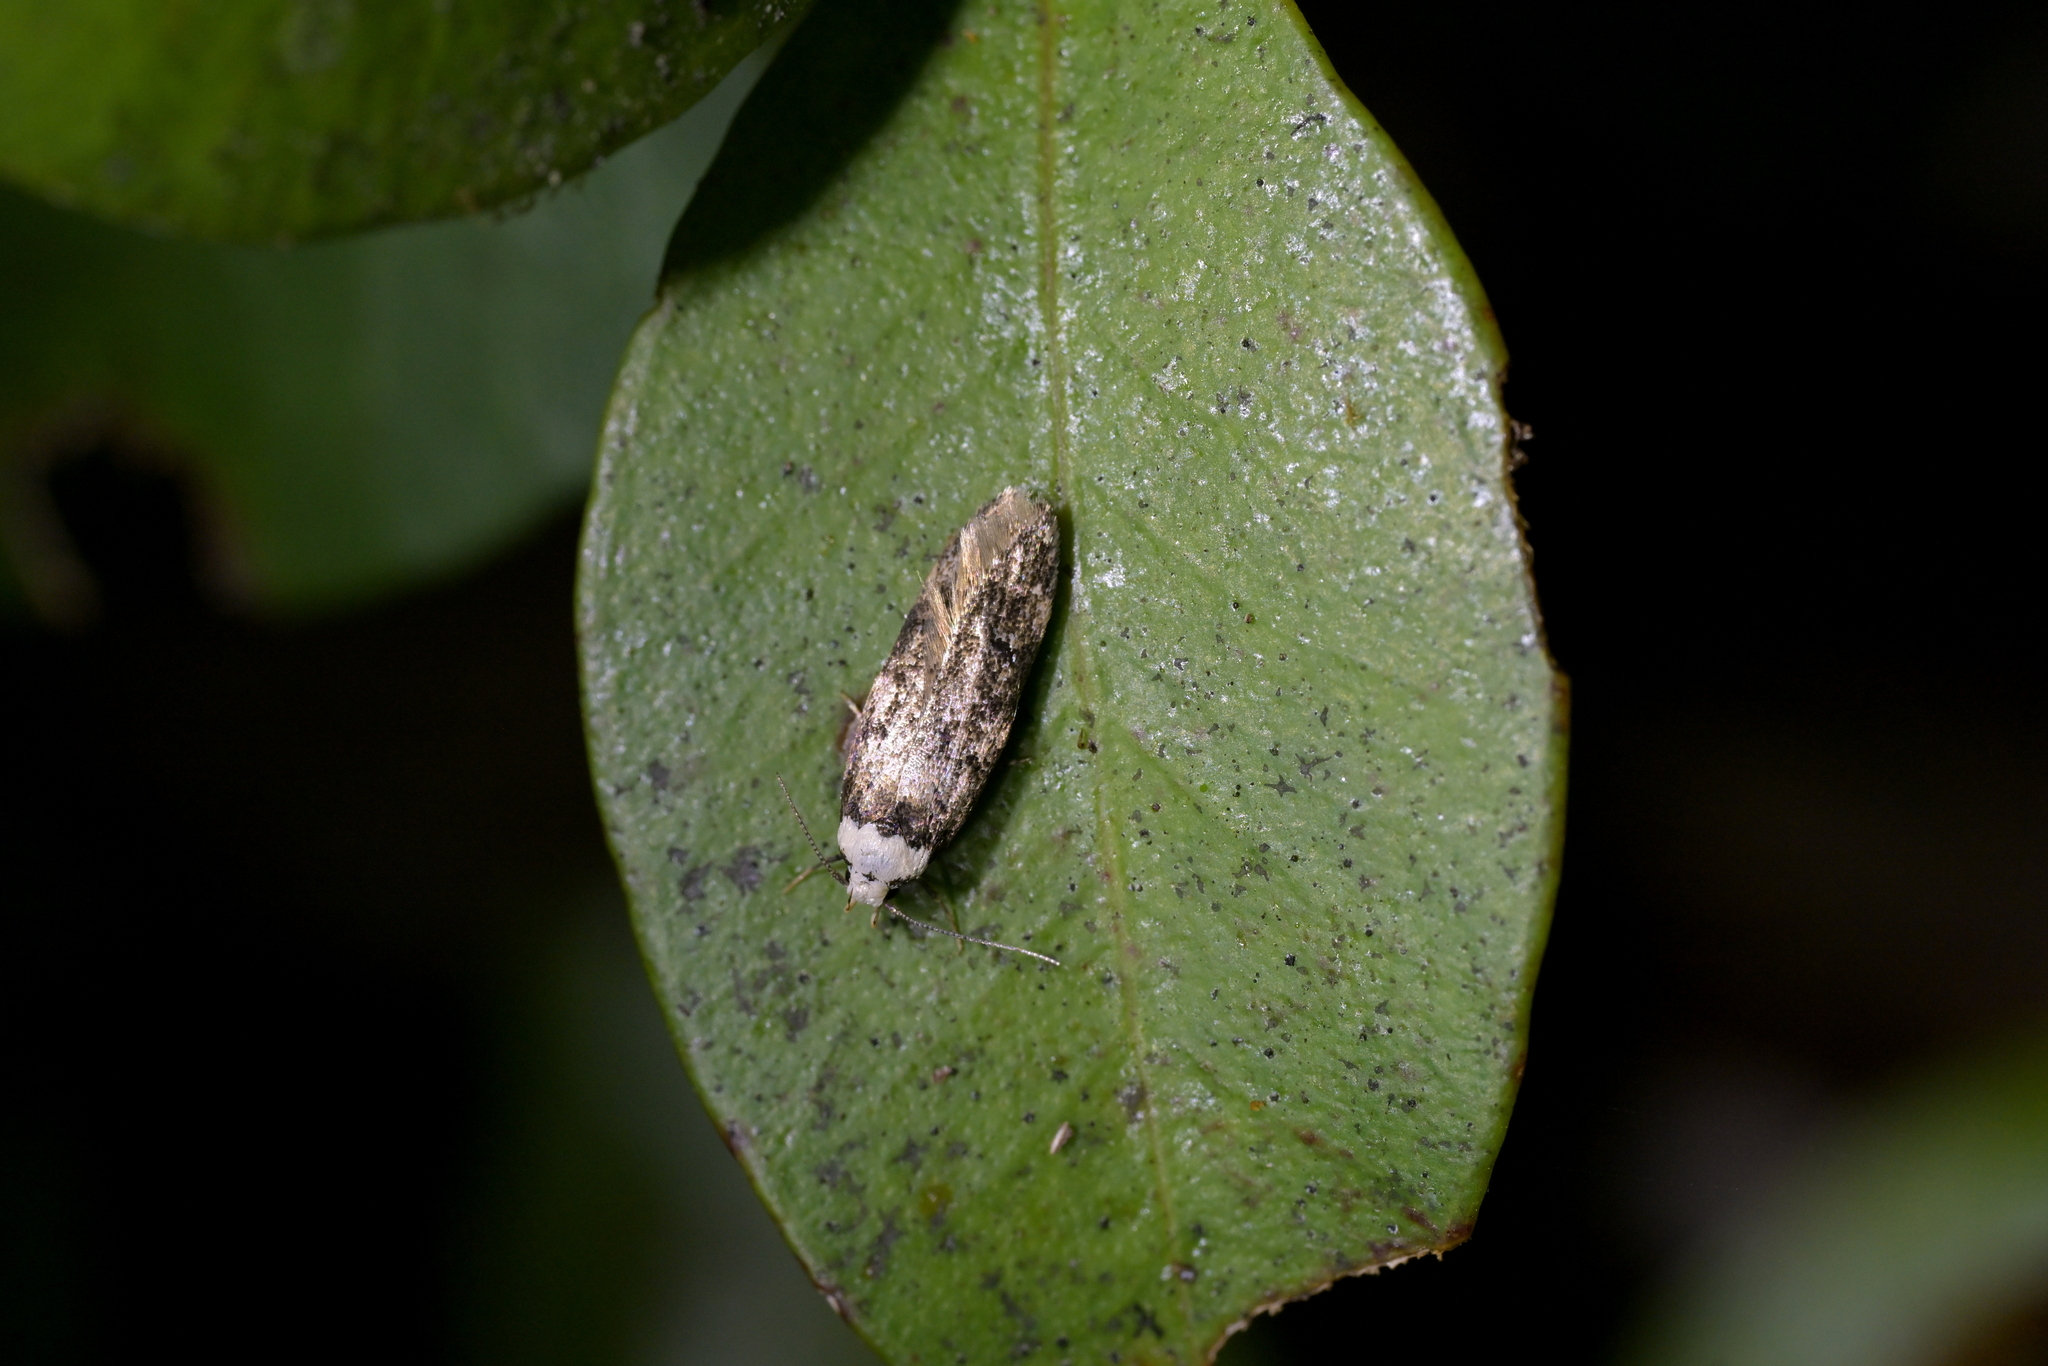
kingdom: Animalia
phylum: Arthropoda
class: Insecta
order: Lepidoptera
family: Oecophoridae
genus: Endrosis
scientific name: Endrosis sarcitrella
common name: White-shouldered house moth
